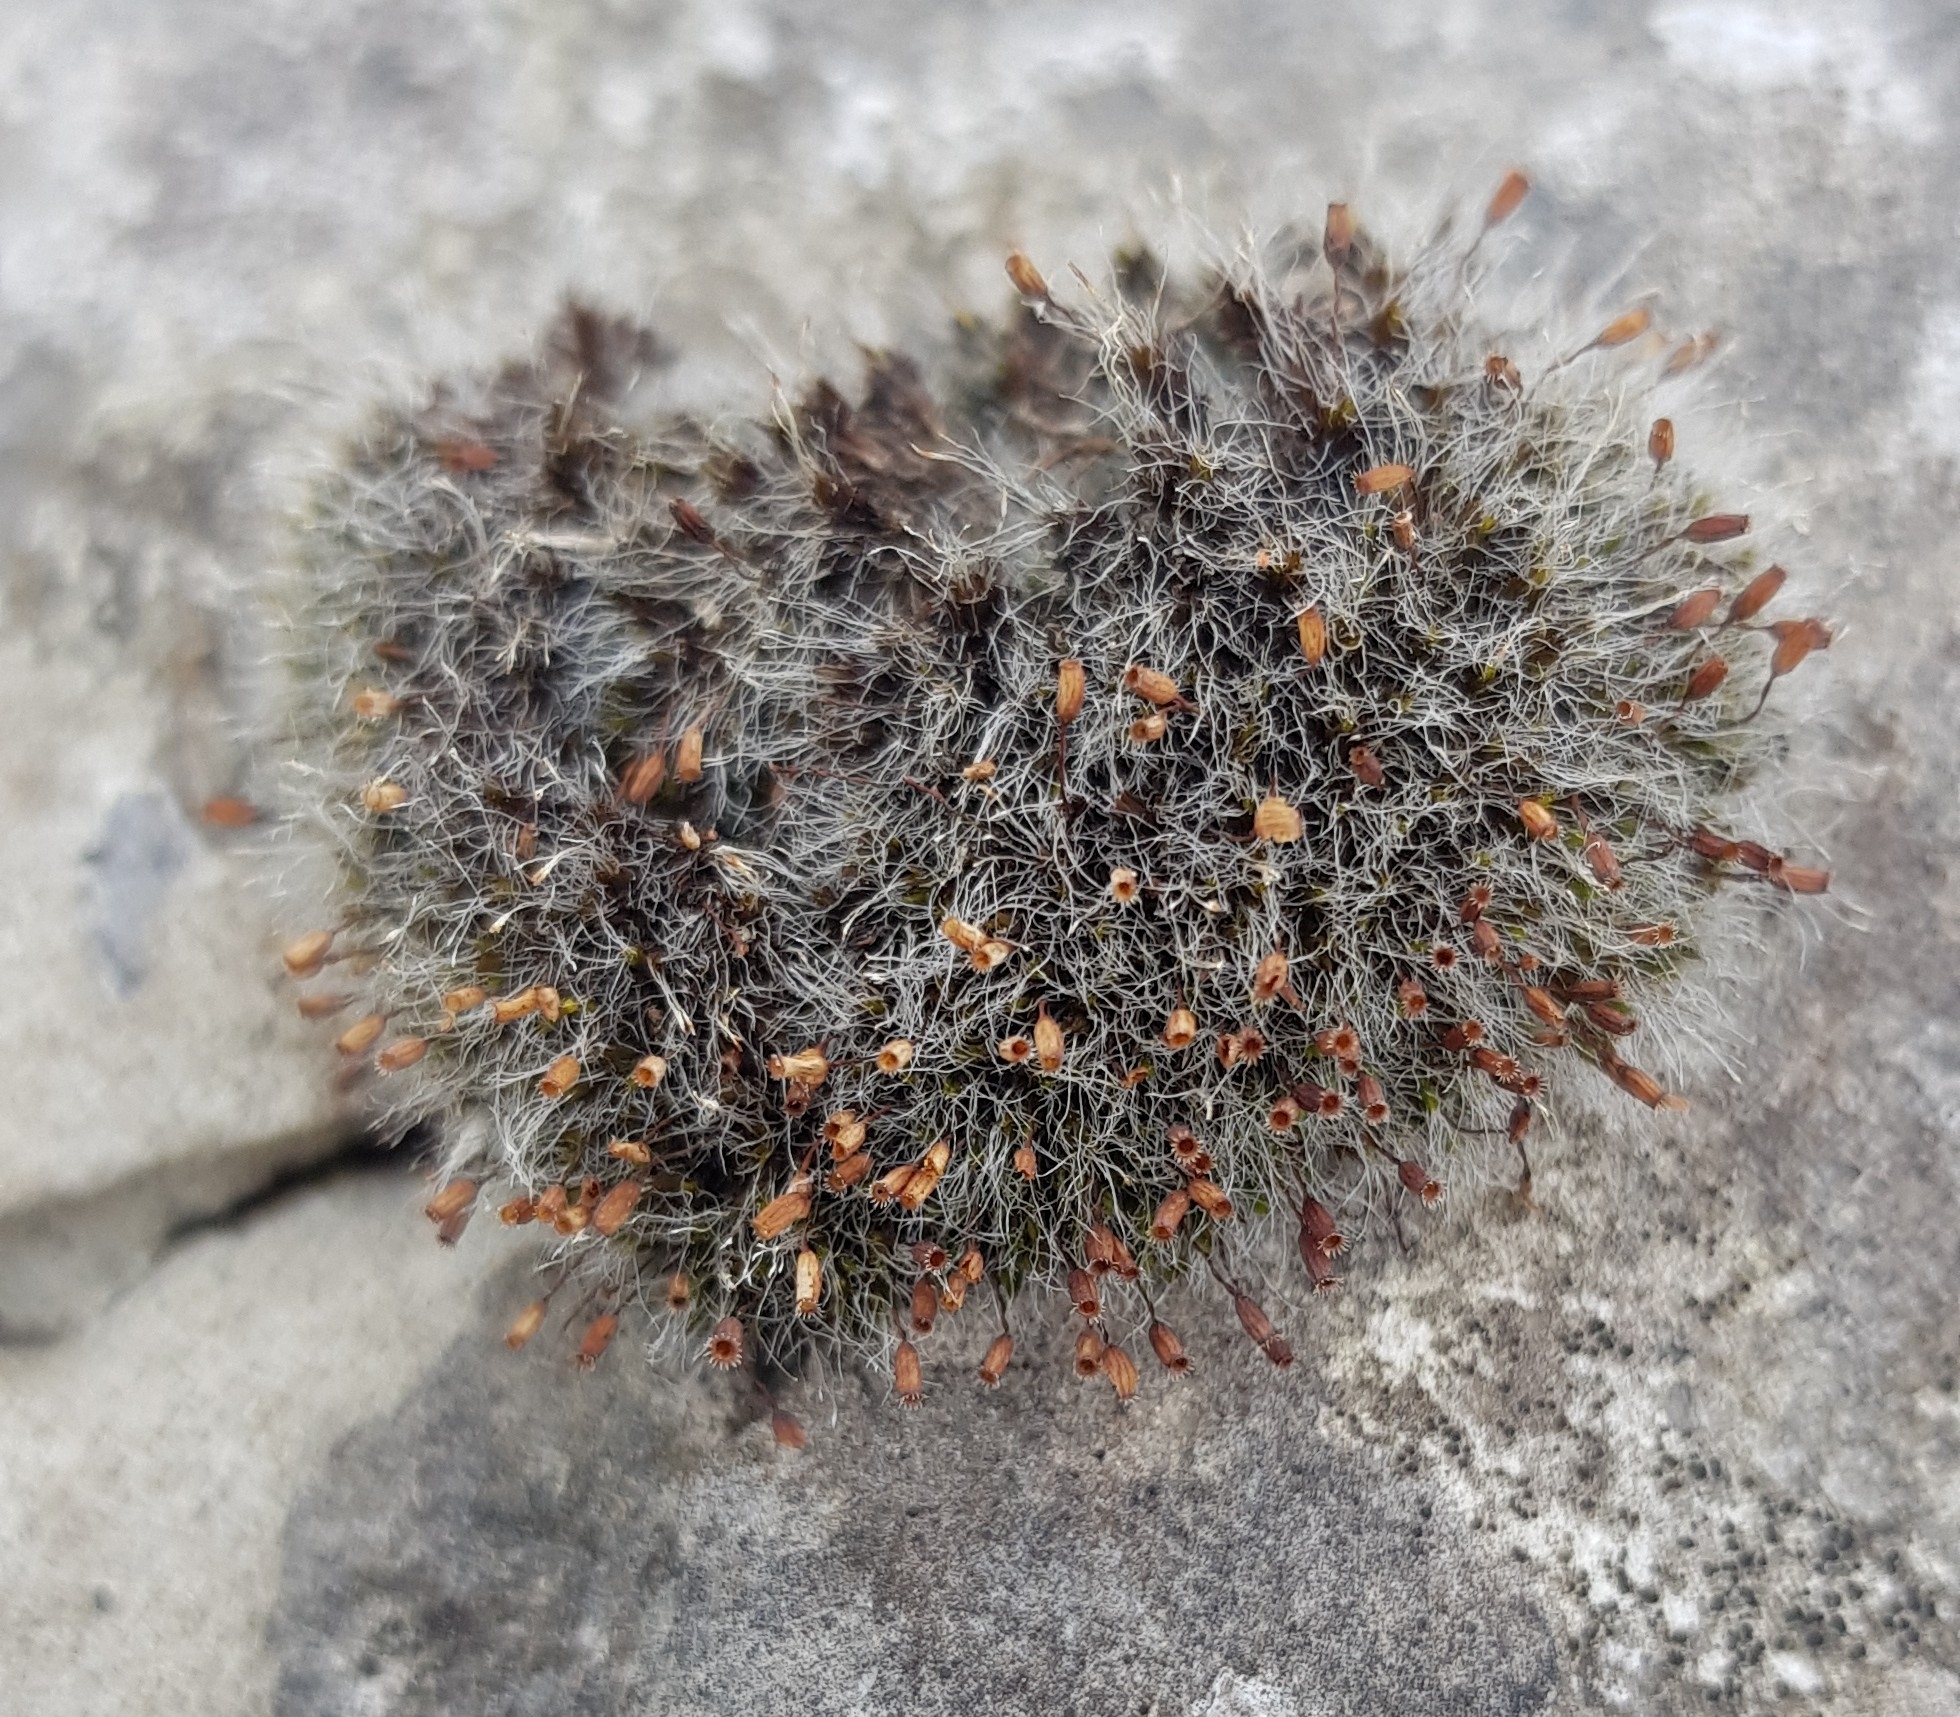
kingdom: Plantae
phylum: Bryophyta
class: Bryopsida
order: Grimmiales
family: Grimmiaceae
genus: Grimmia
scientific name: Grimmia pulvinata
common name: Grey-cushioned grimmia
